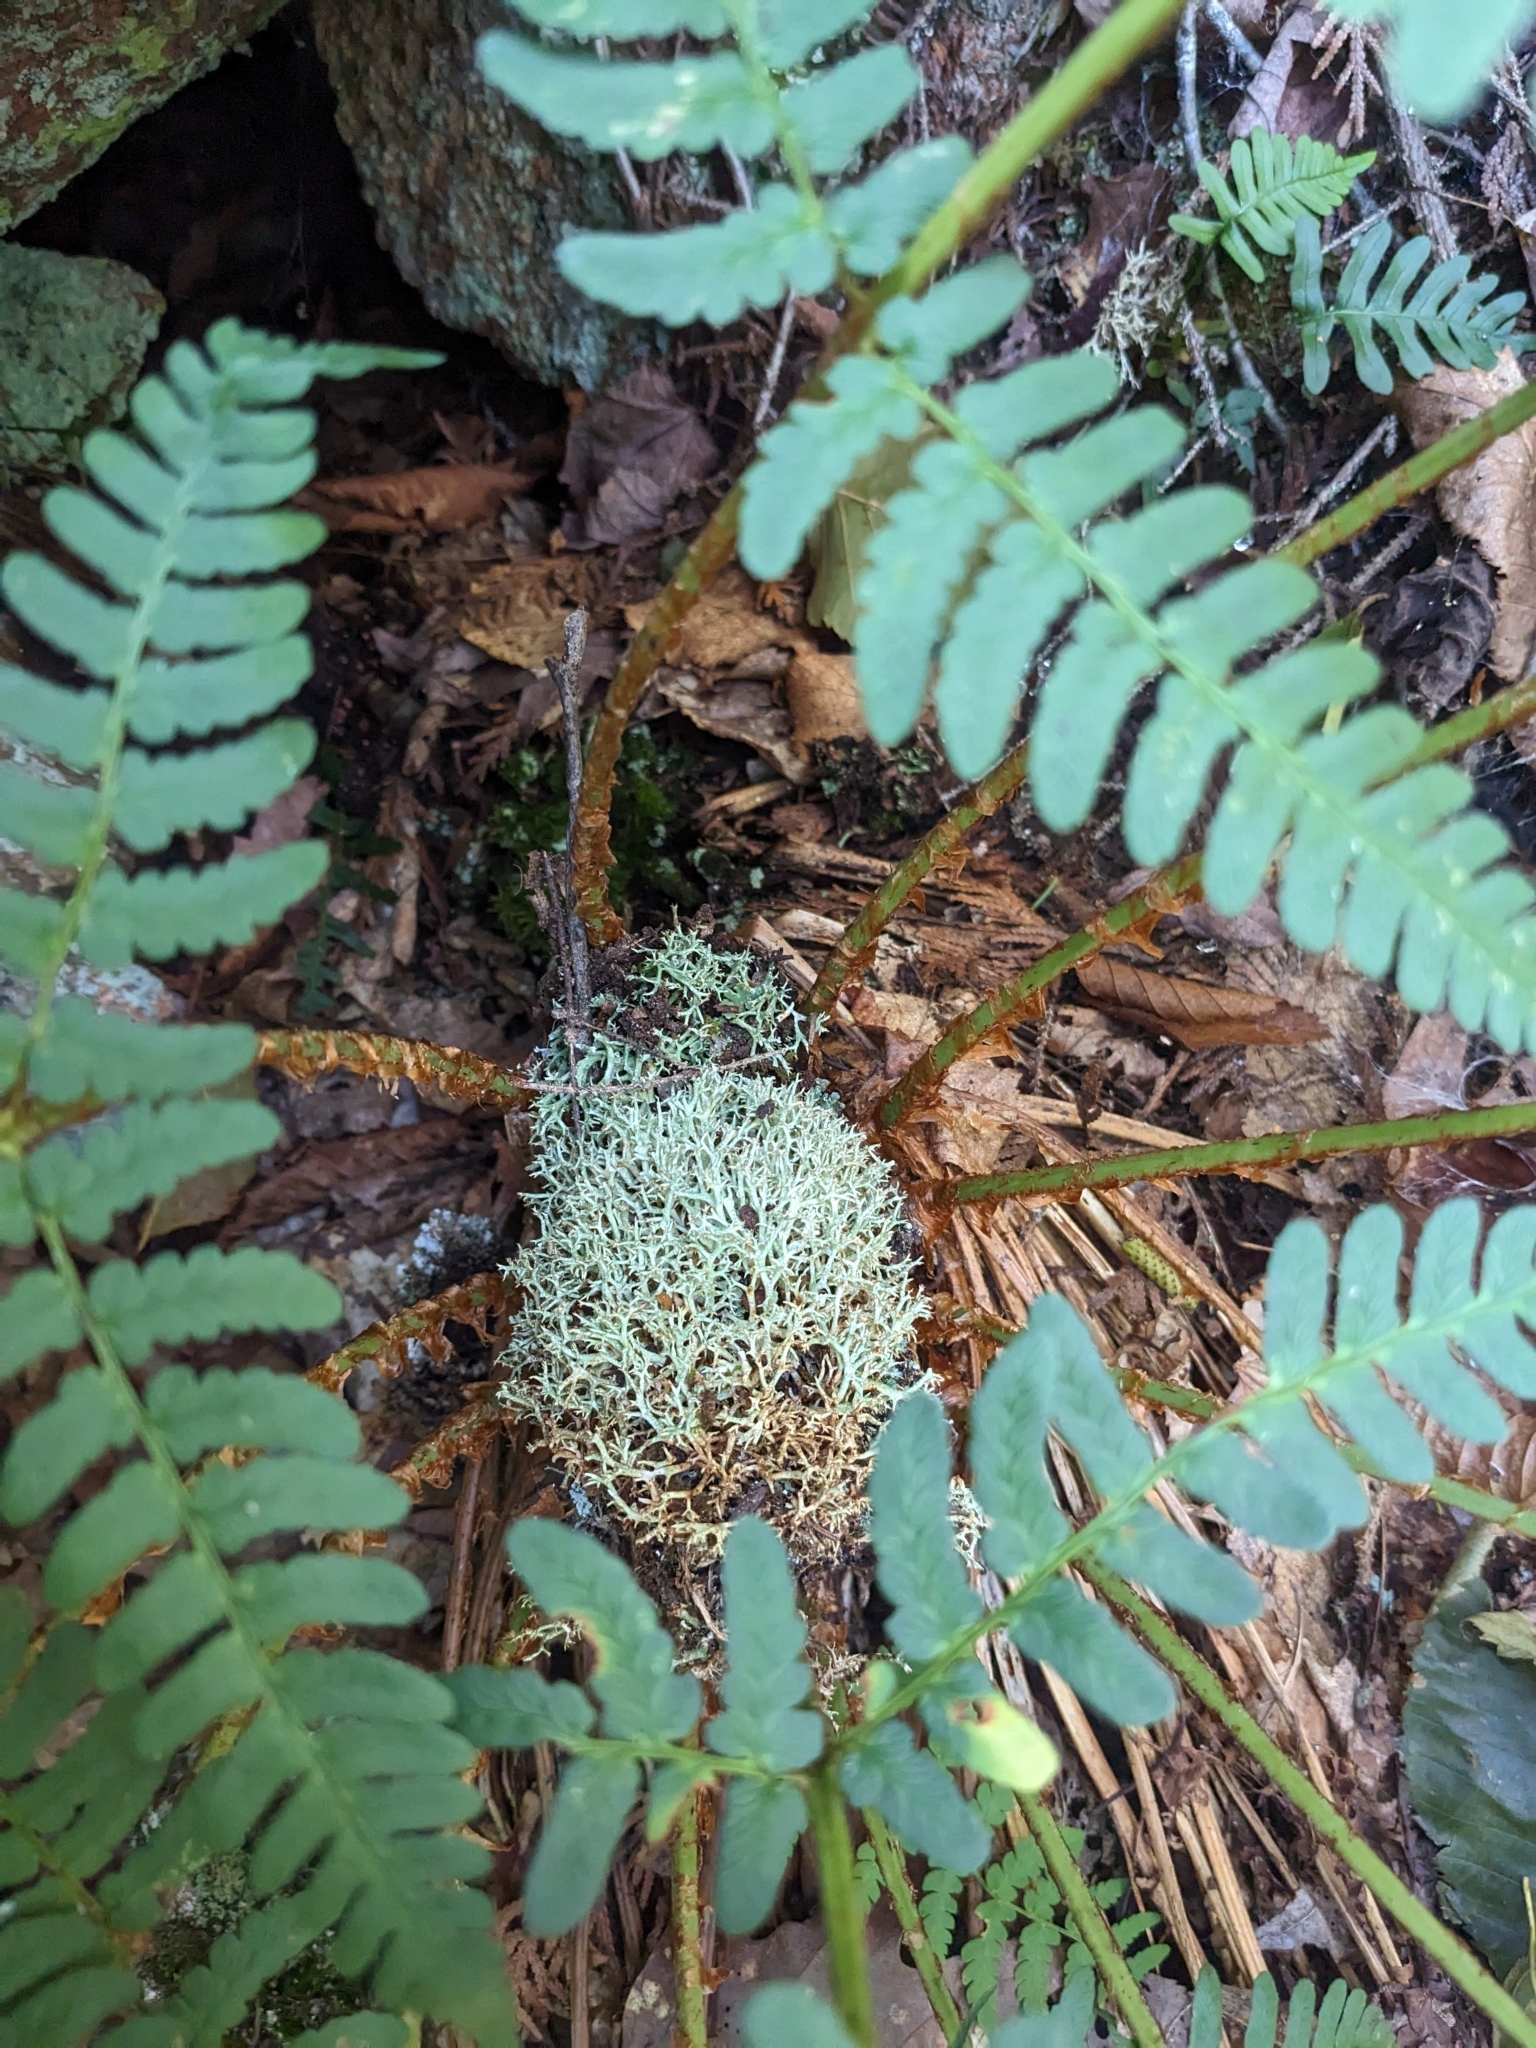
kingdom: Plantae
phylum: Tracheophyta
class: Polypodiopsida
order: Polypodiales
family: Dryopteridaceae
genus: Dryopteris
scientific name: Dryopteris marginalis
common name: Marginal wood fern
